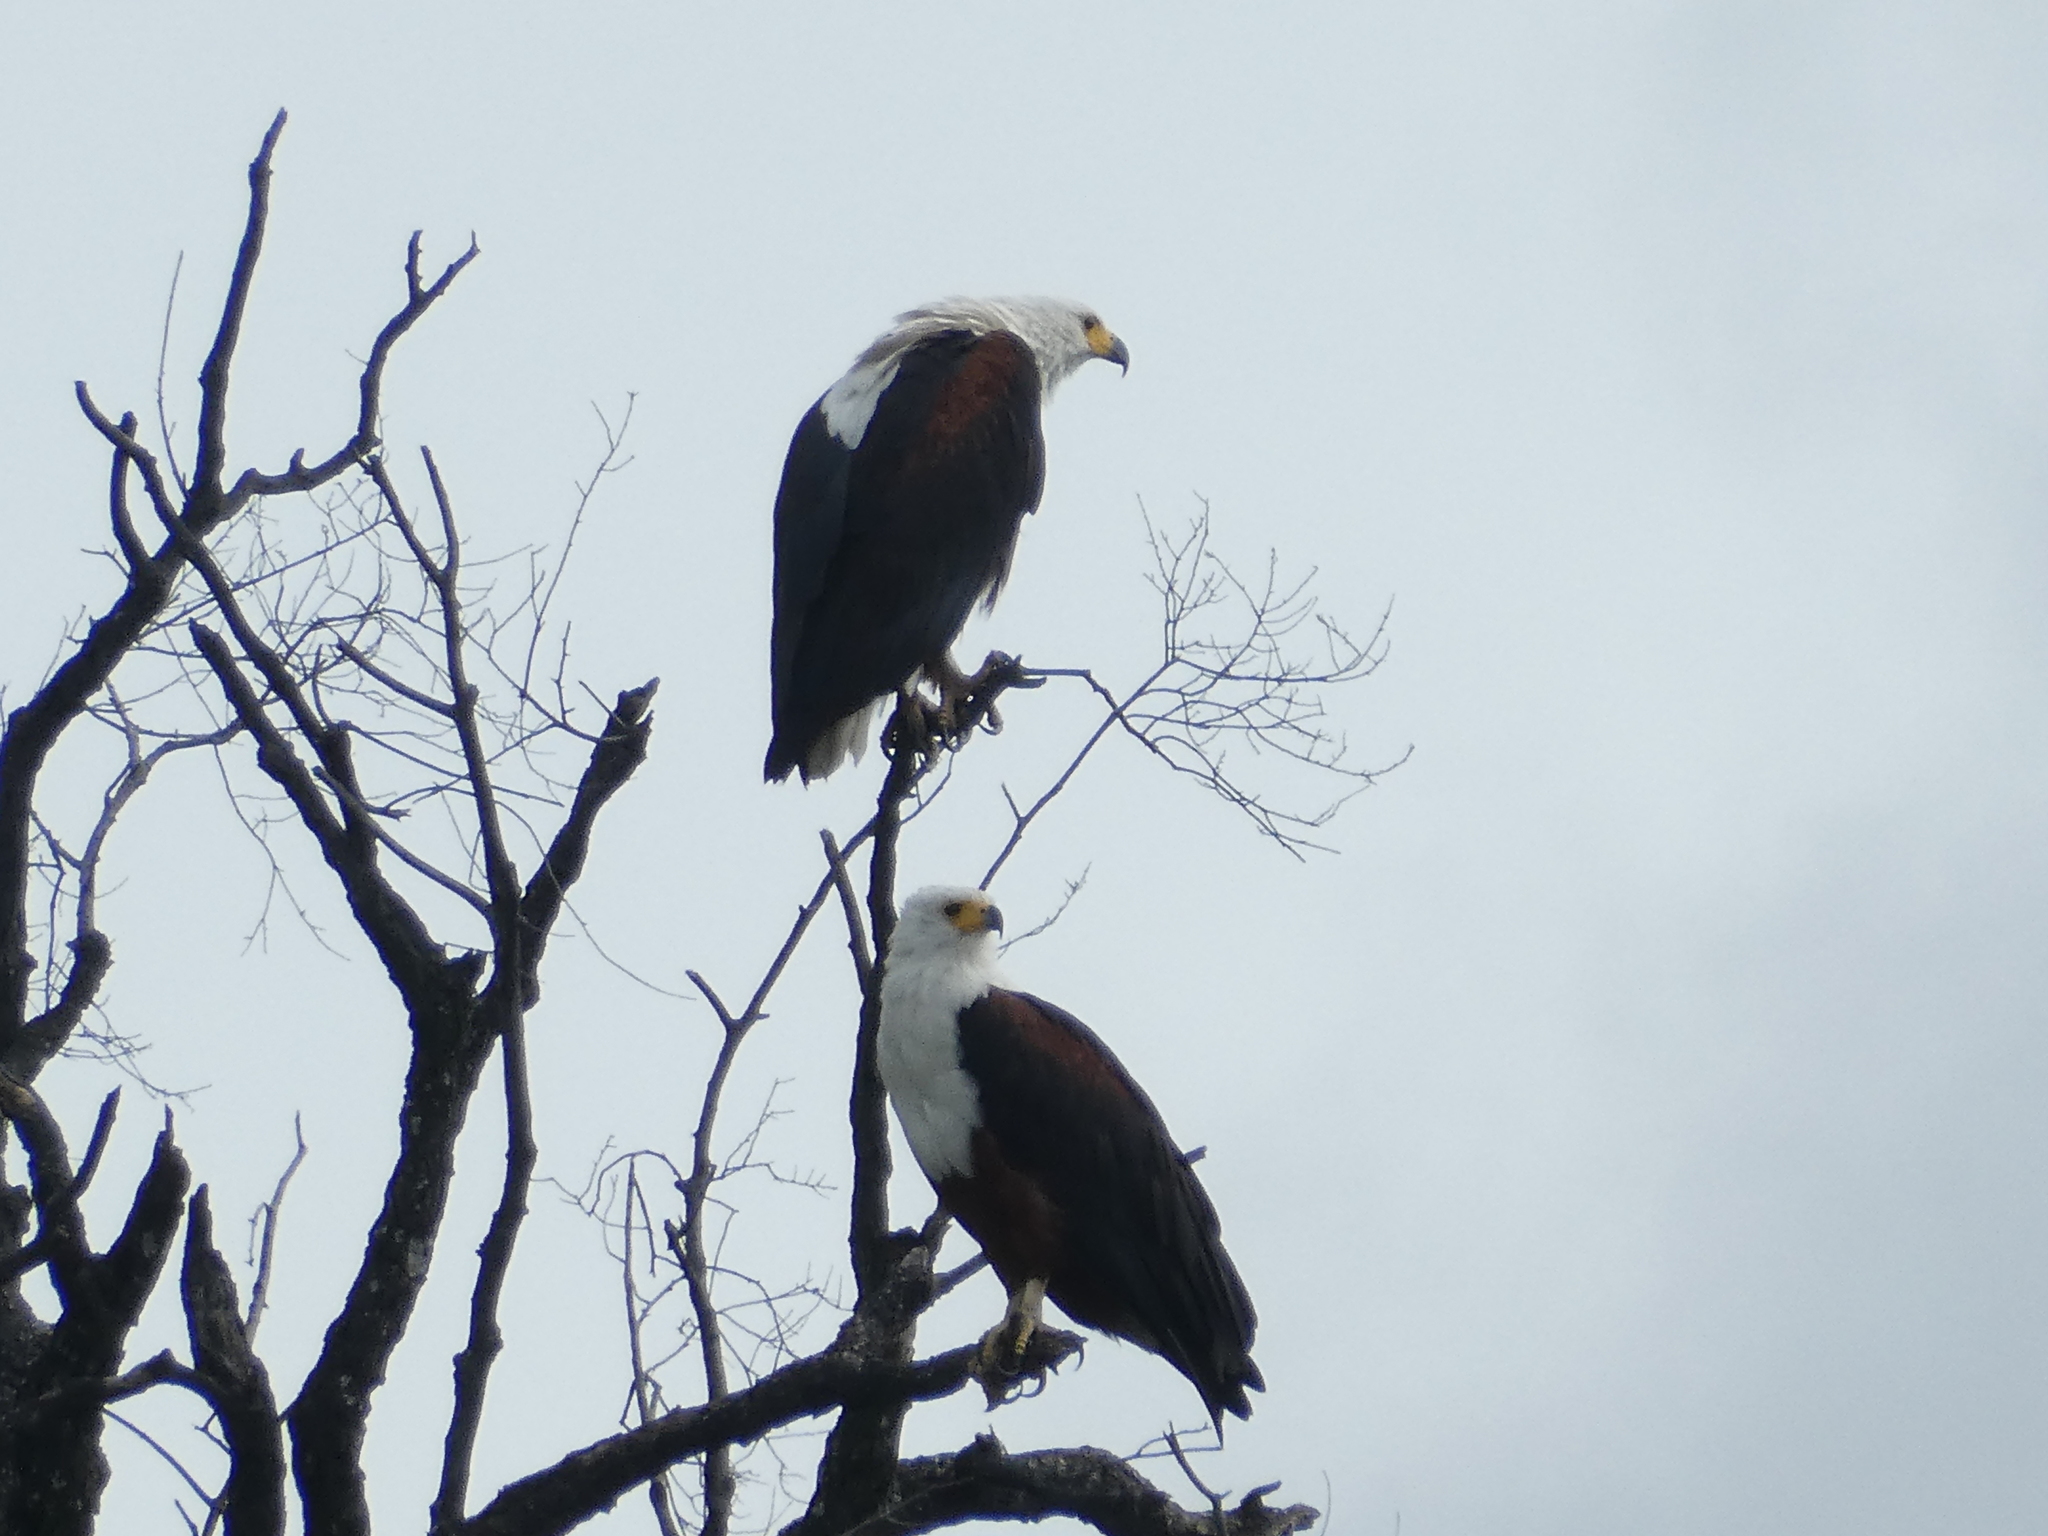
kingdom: Animalia
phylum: Chordata
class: Aves
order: Accipitriformes
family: Accipitridae
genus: Haliaeetus
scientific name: Haliaeetus vocifer
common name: African fish eagle
